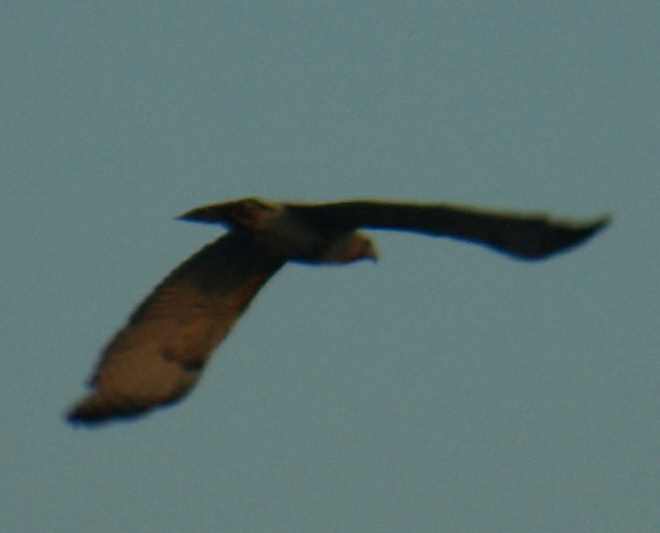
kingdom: Animalia
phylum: Chordata
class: Aves
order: Accipitriformes
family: Accipitridae
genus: Buteo
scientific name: Buteo jamaicensis
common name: Red-tailed hawk
